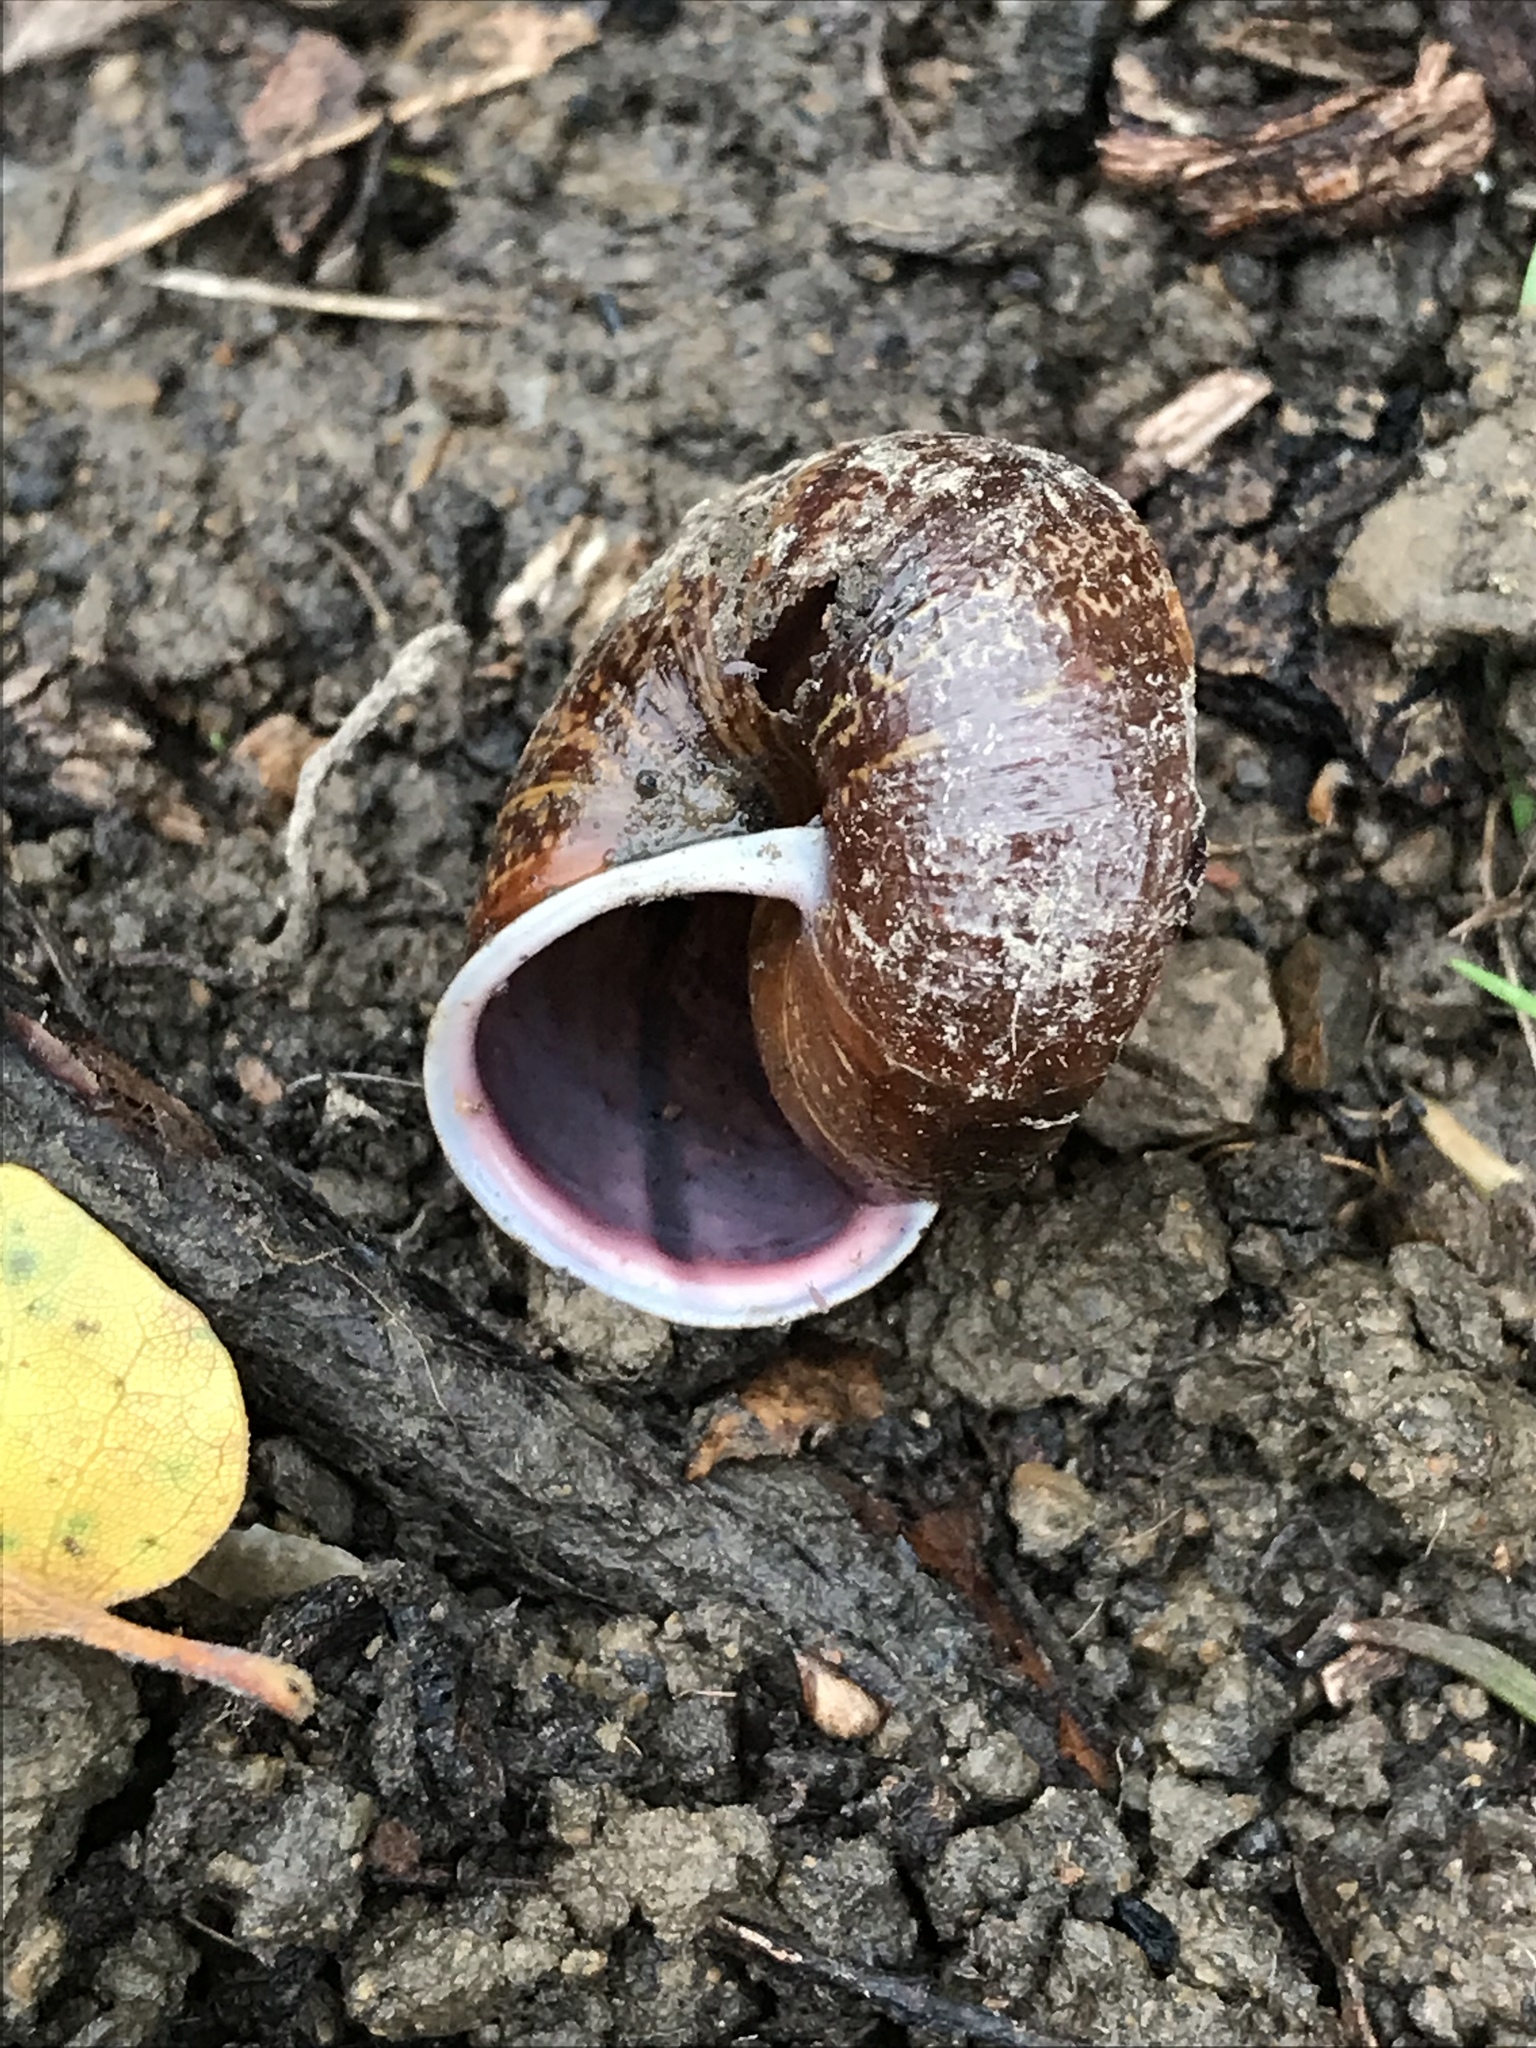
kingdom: Animalia
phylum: Mollusca
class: Gastropoda
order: Stylommatophora
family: Xanthonychidae
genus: Helminthoglypta
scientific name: Helminthoglypta arrosa
